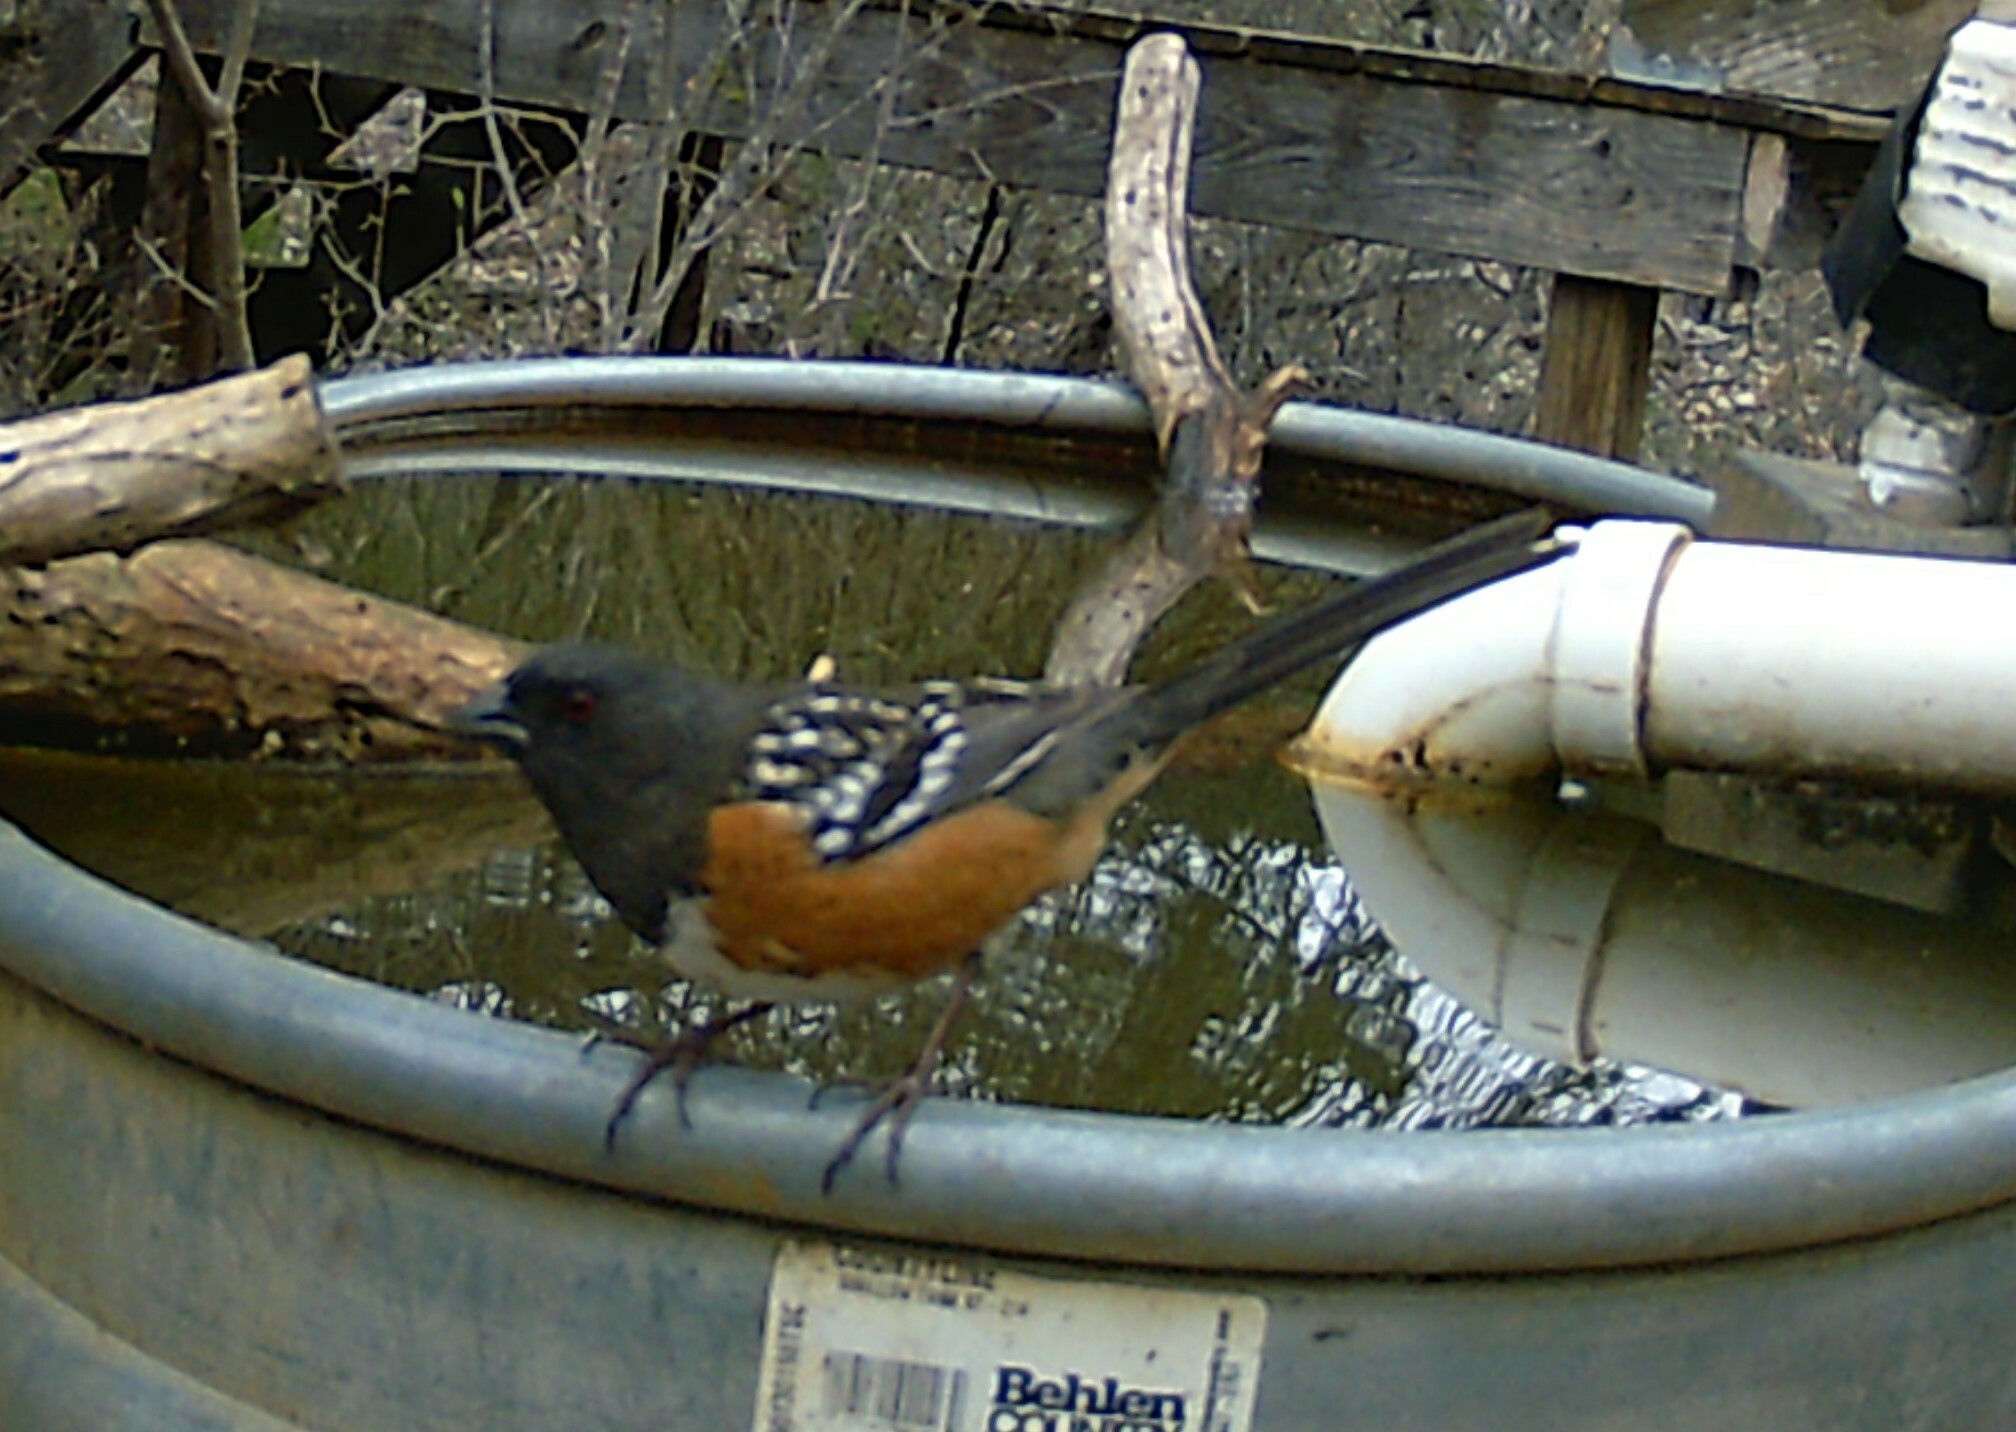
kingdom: Animalia
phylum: Chordata
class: Aves
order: Passeriformes
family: Passerellidae
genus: Pipilo
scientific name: Pipilo maculatus
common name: Spotted towhee
